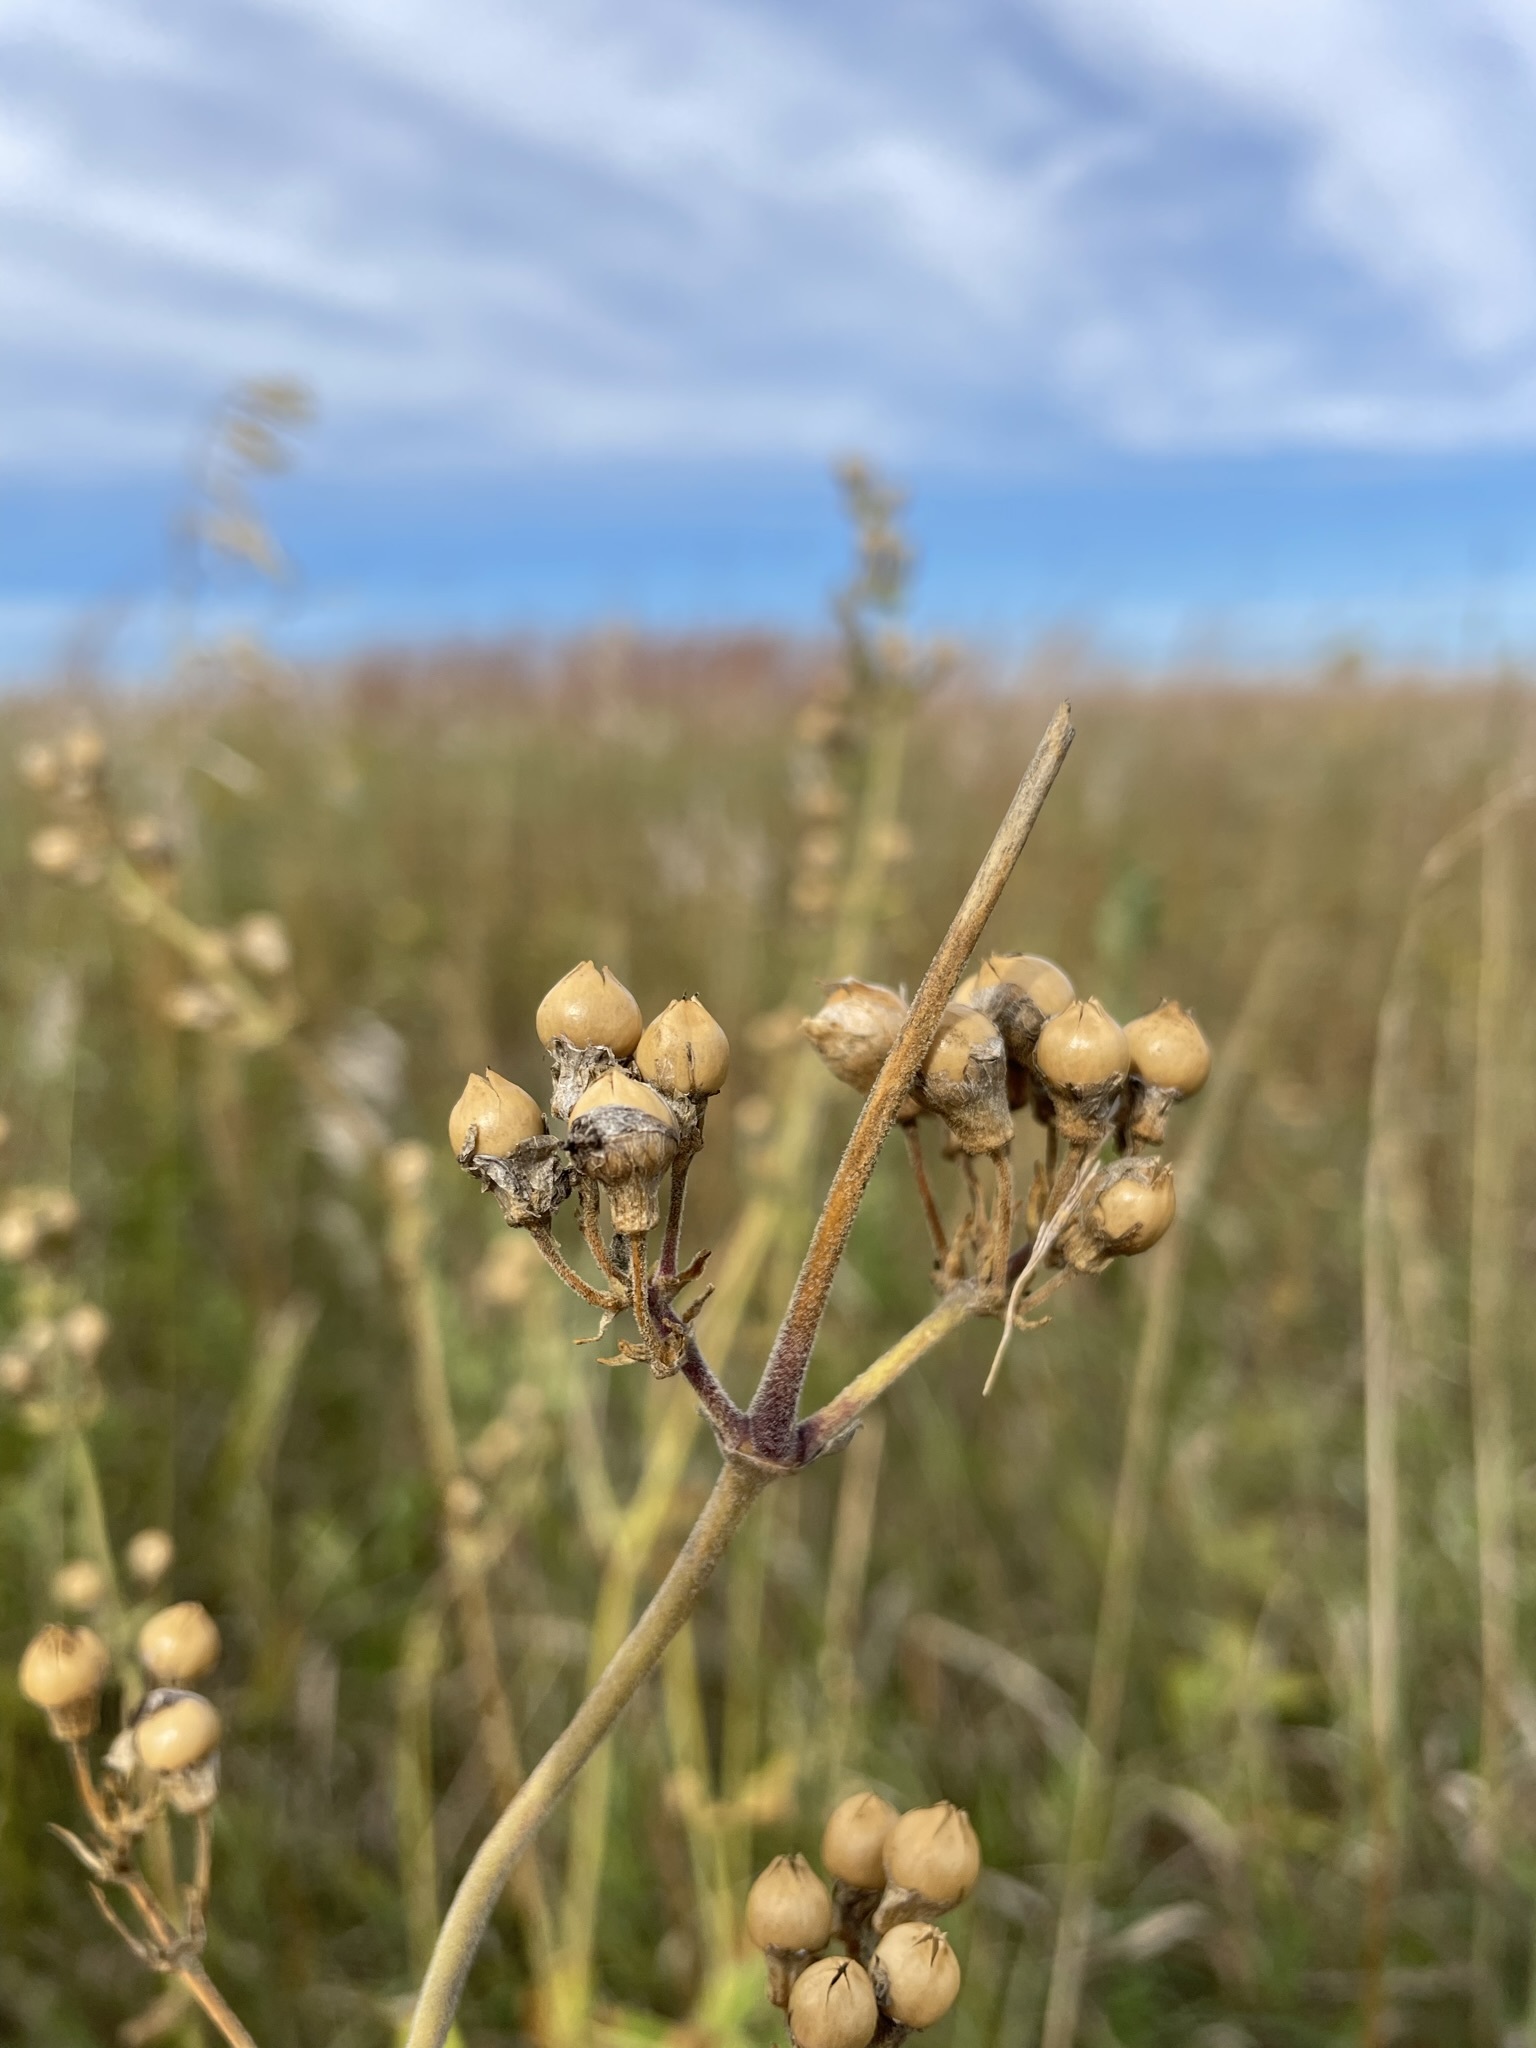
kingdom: Plantae
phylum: Tracheophyta
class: Magnoliopsida
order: Caryophyllales
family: Caryophyllaceae
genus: Silene
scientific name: Silene stellata
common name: Starry campion
